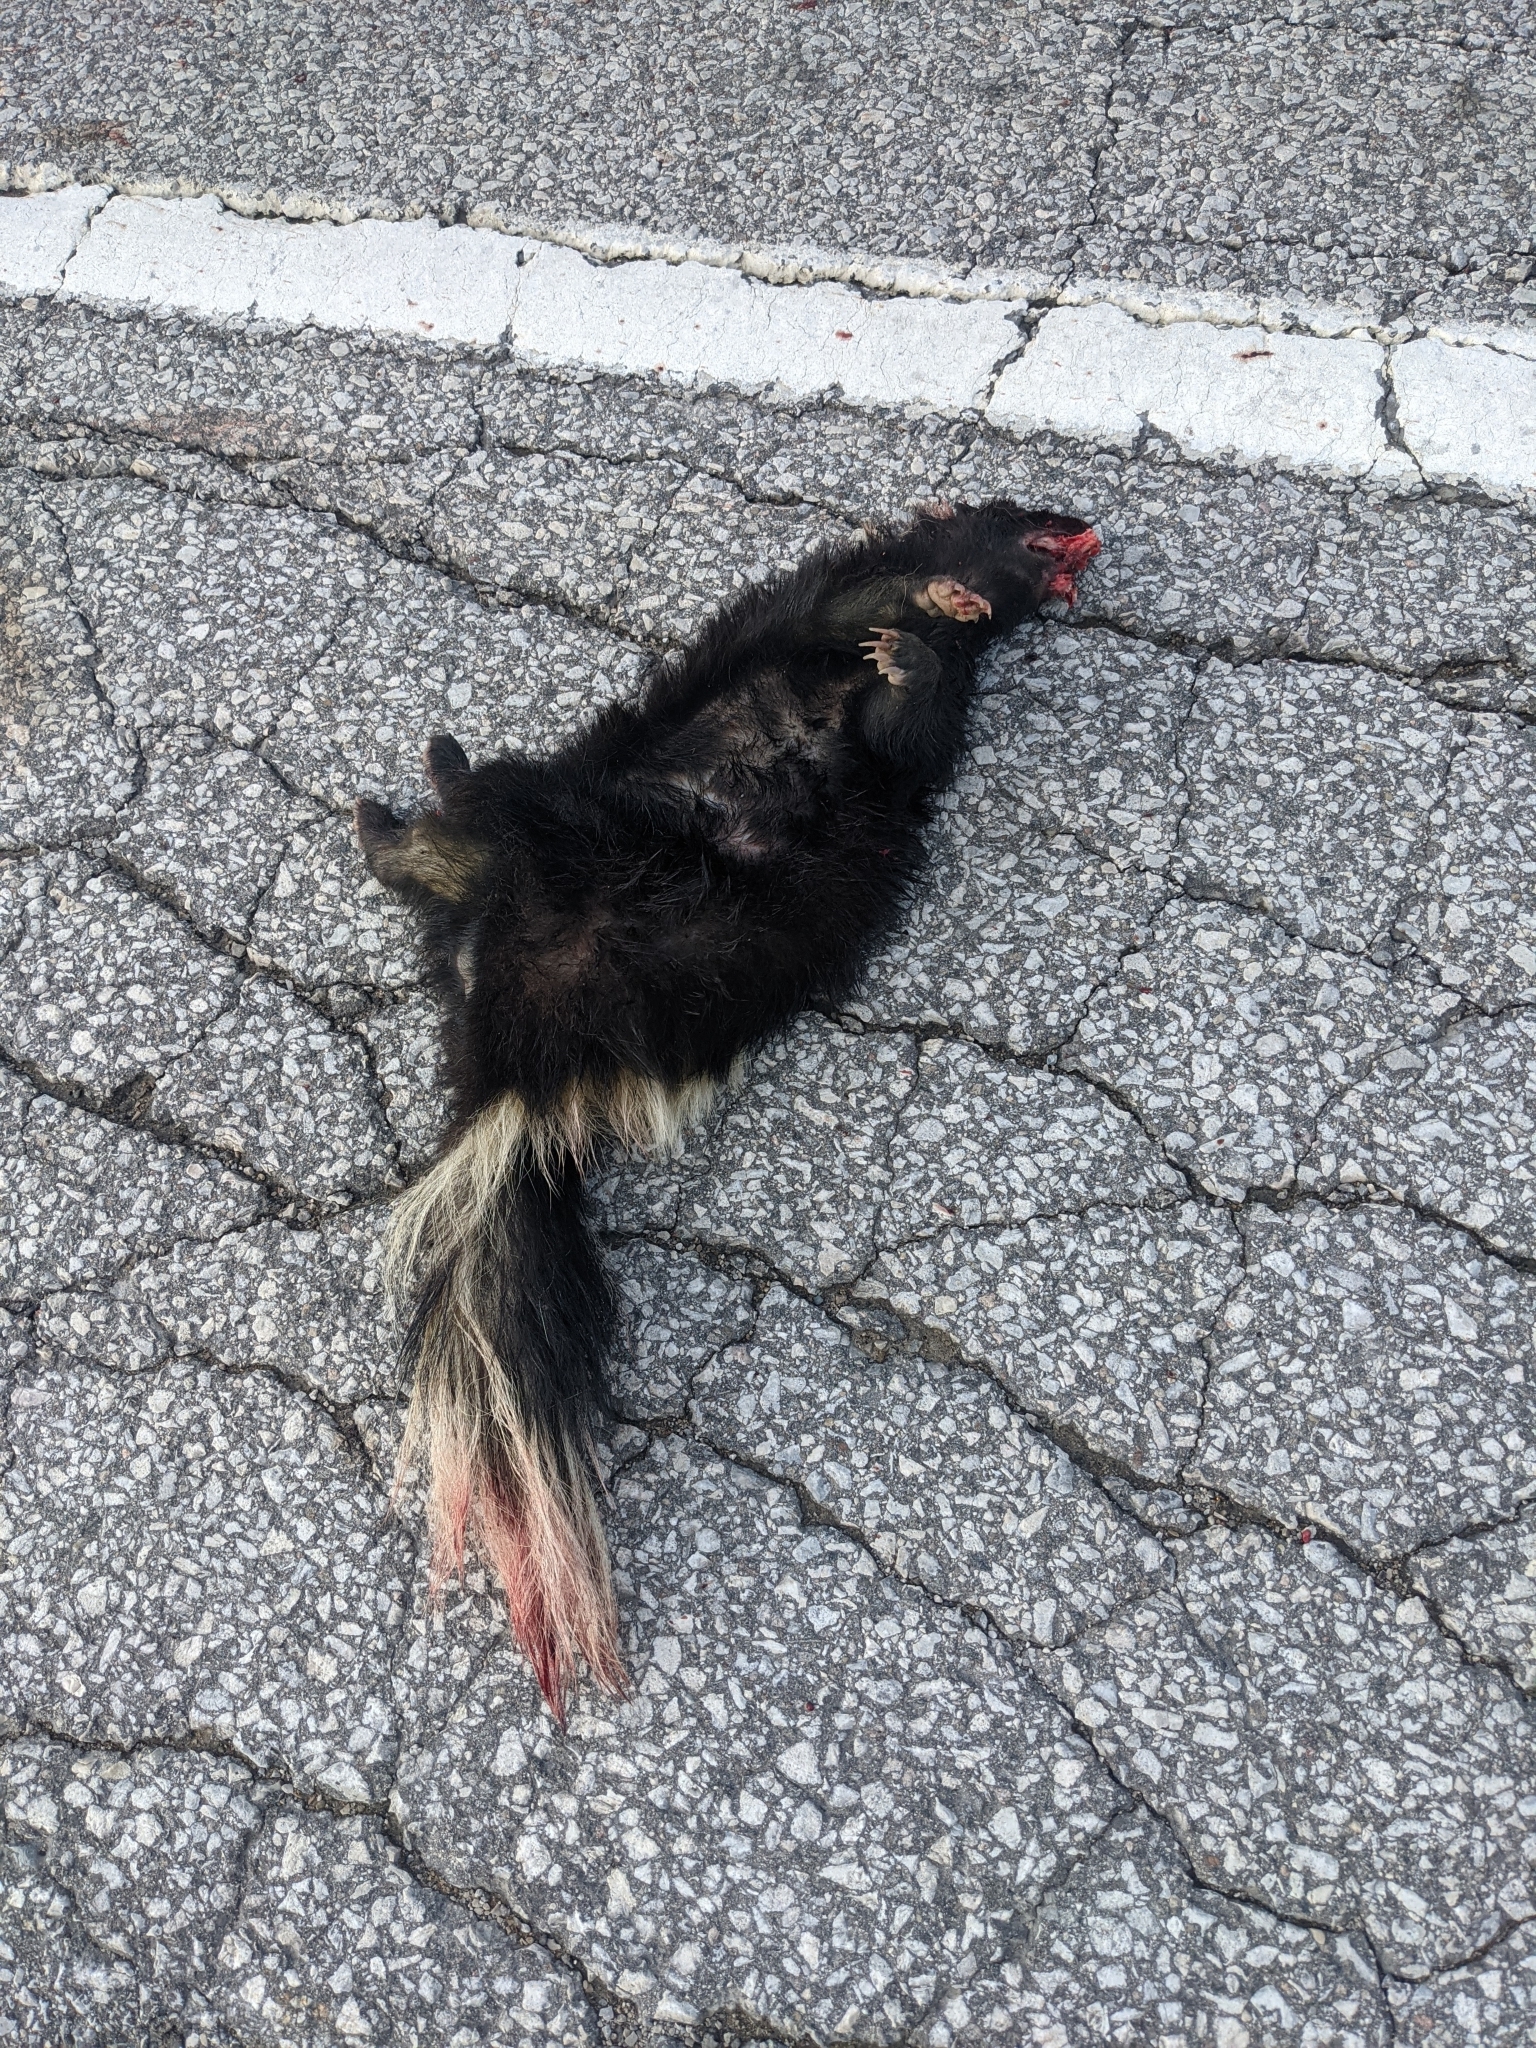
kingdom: Animalia
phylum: Chordata
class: Mammalia
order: Carnivora
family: Mephitidae
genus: Mephitis
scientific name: Mephitis mephitis
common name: Striped skunk
